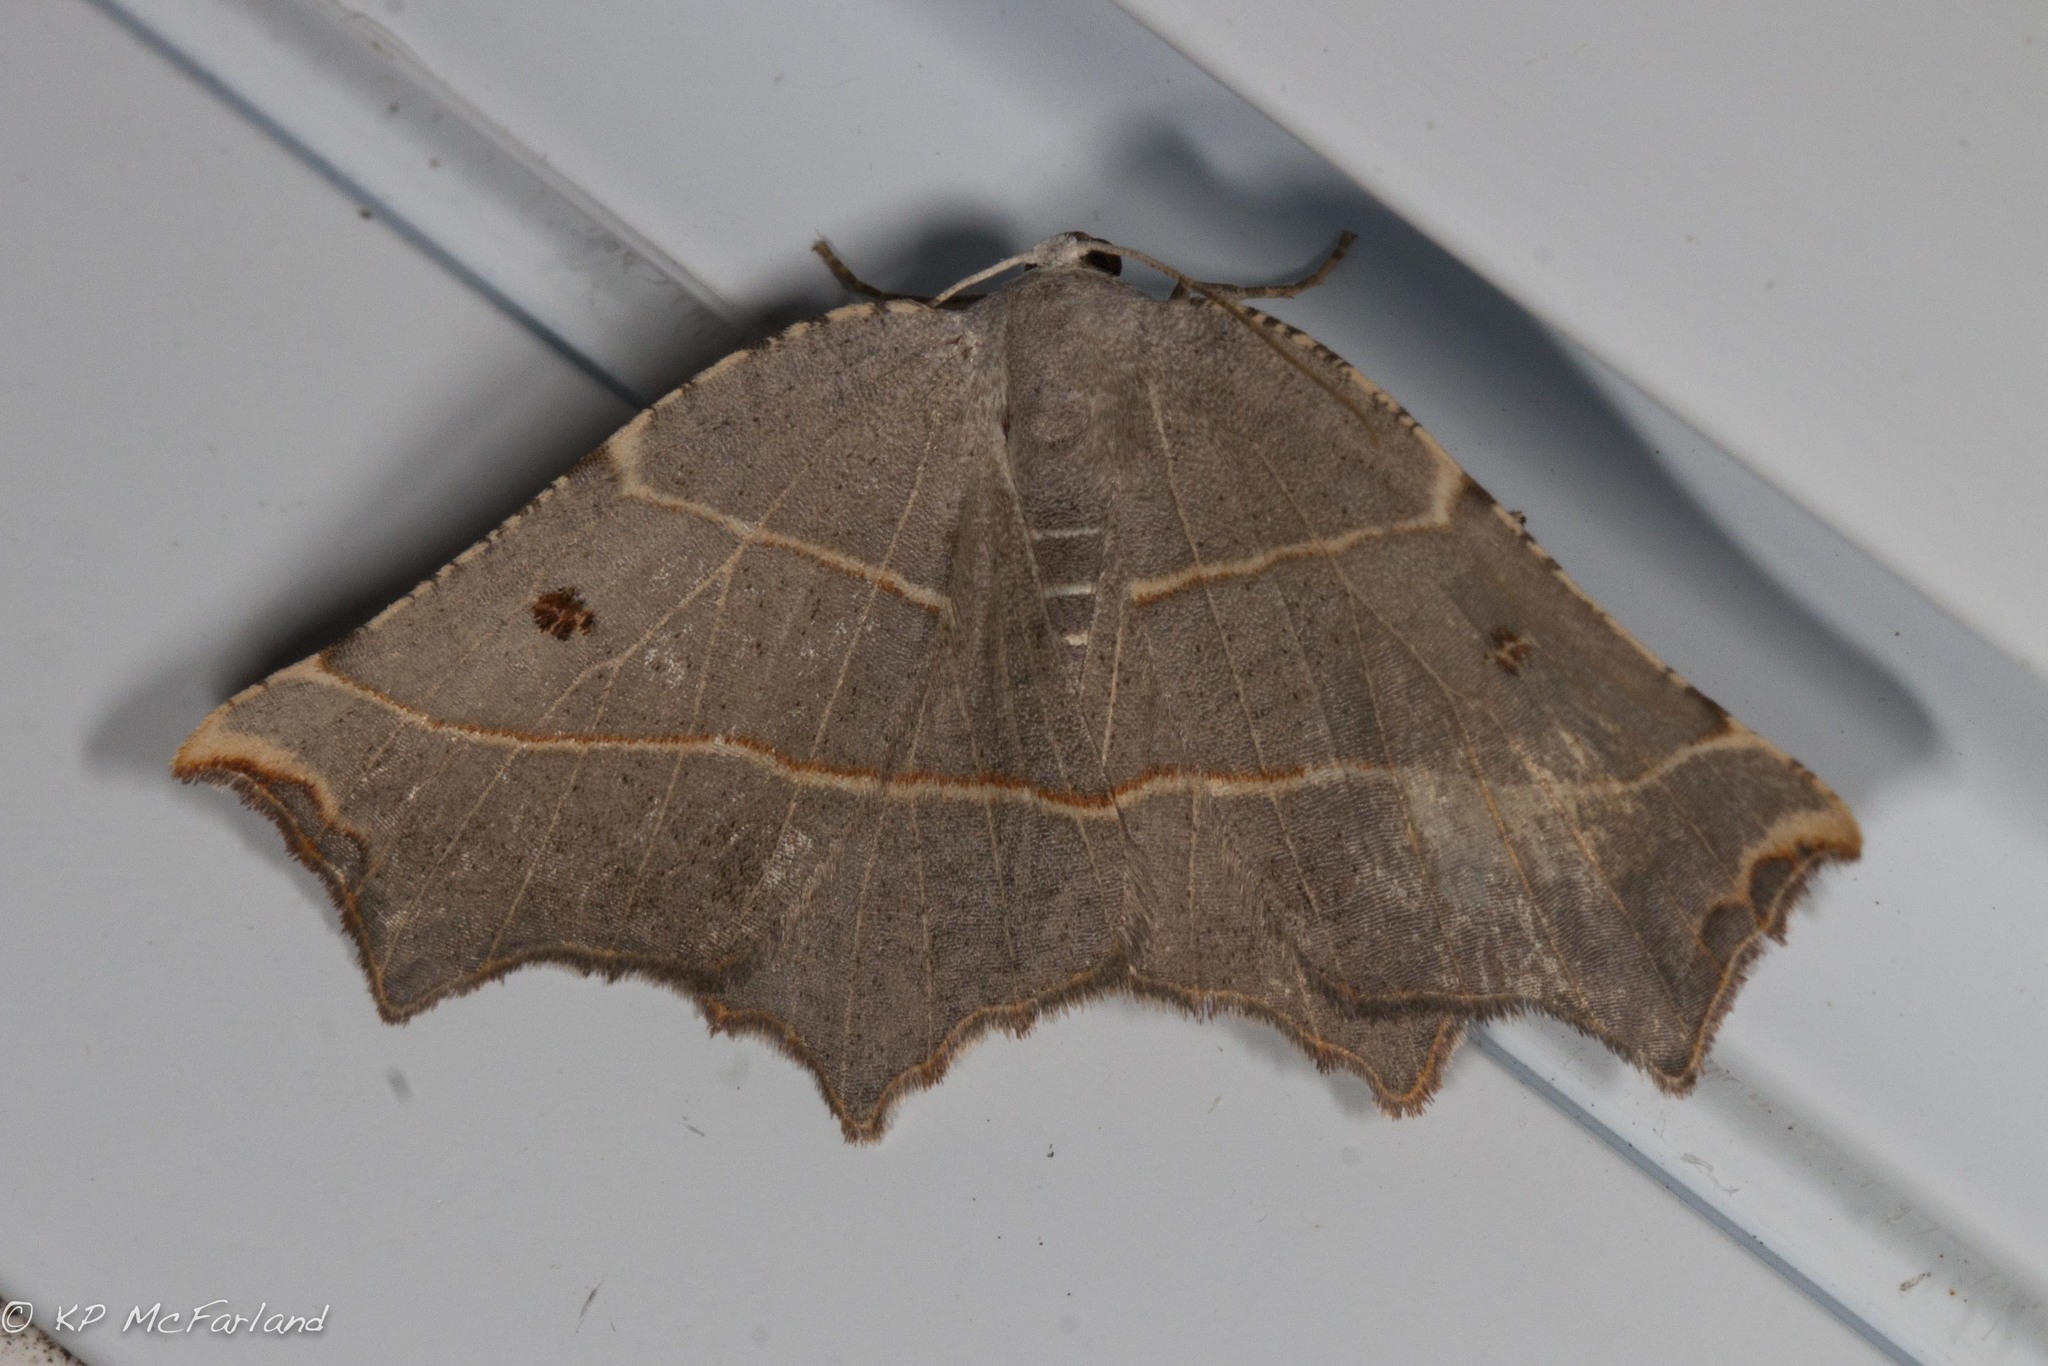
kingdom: Animalia
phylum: Arthropoda
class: Insecta
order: Lepidoptera
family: Geometridae
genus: Metanema
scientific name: Metanema inatomaria
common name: Pale metanema
